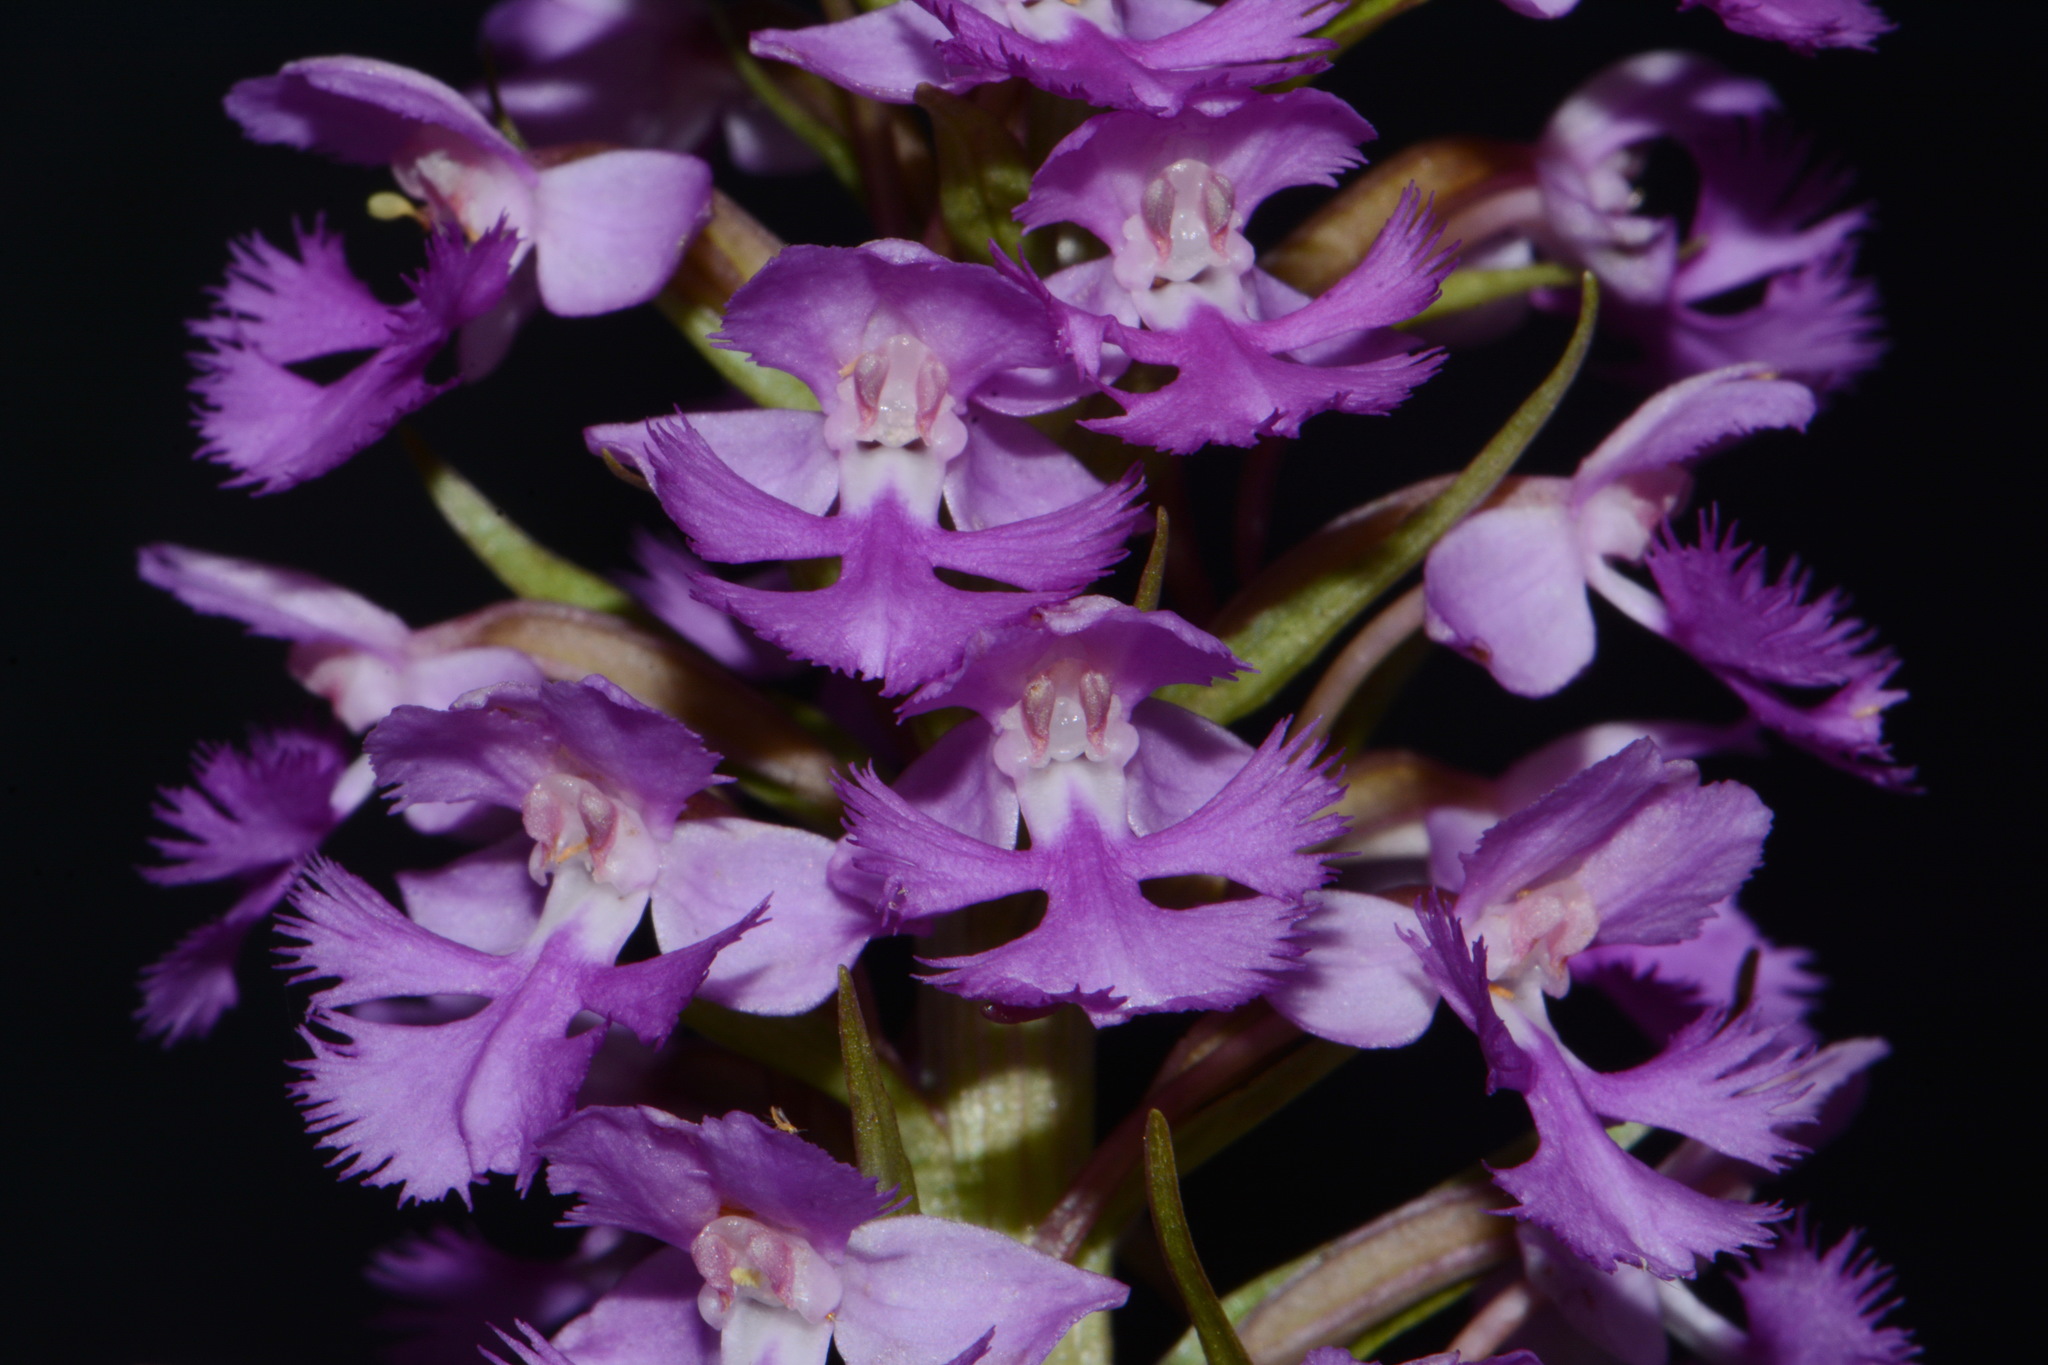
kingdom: Plantae
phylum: Tracheophyta
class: Liliopsida
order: Asparagales
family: Orchidaceae
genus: Platanthera
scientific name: Platanthera psycodes
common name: Lesser purple fringed orchid
